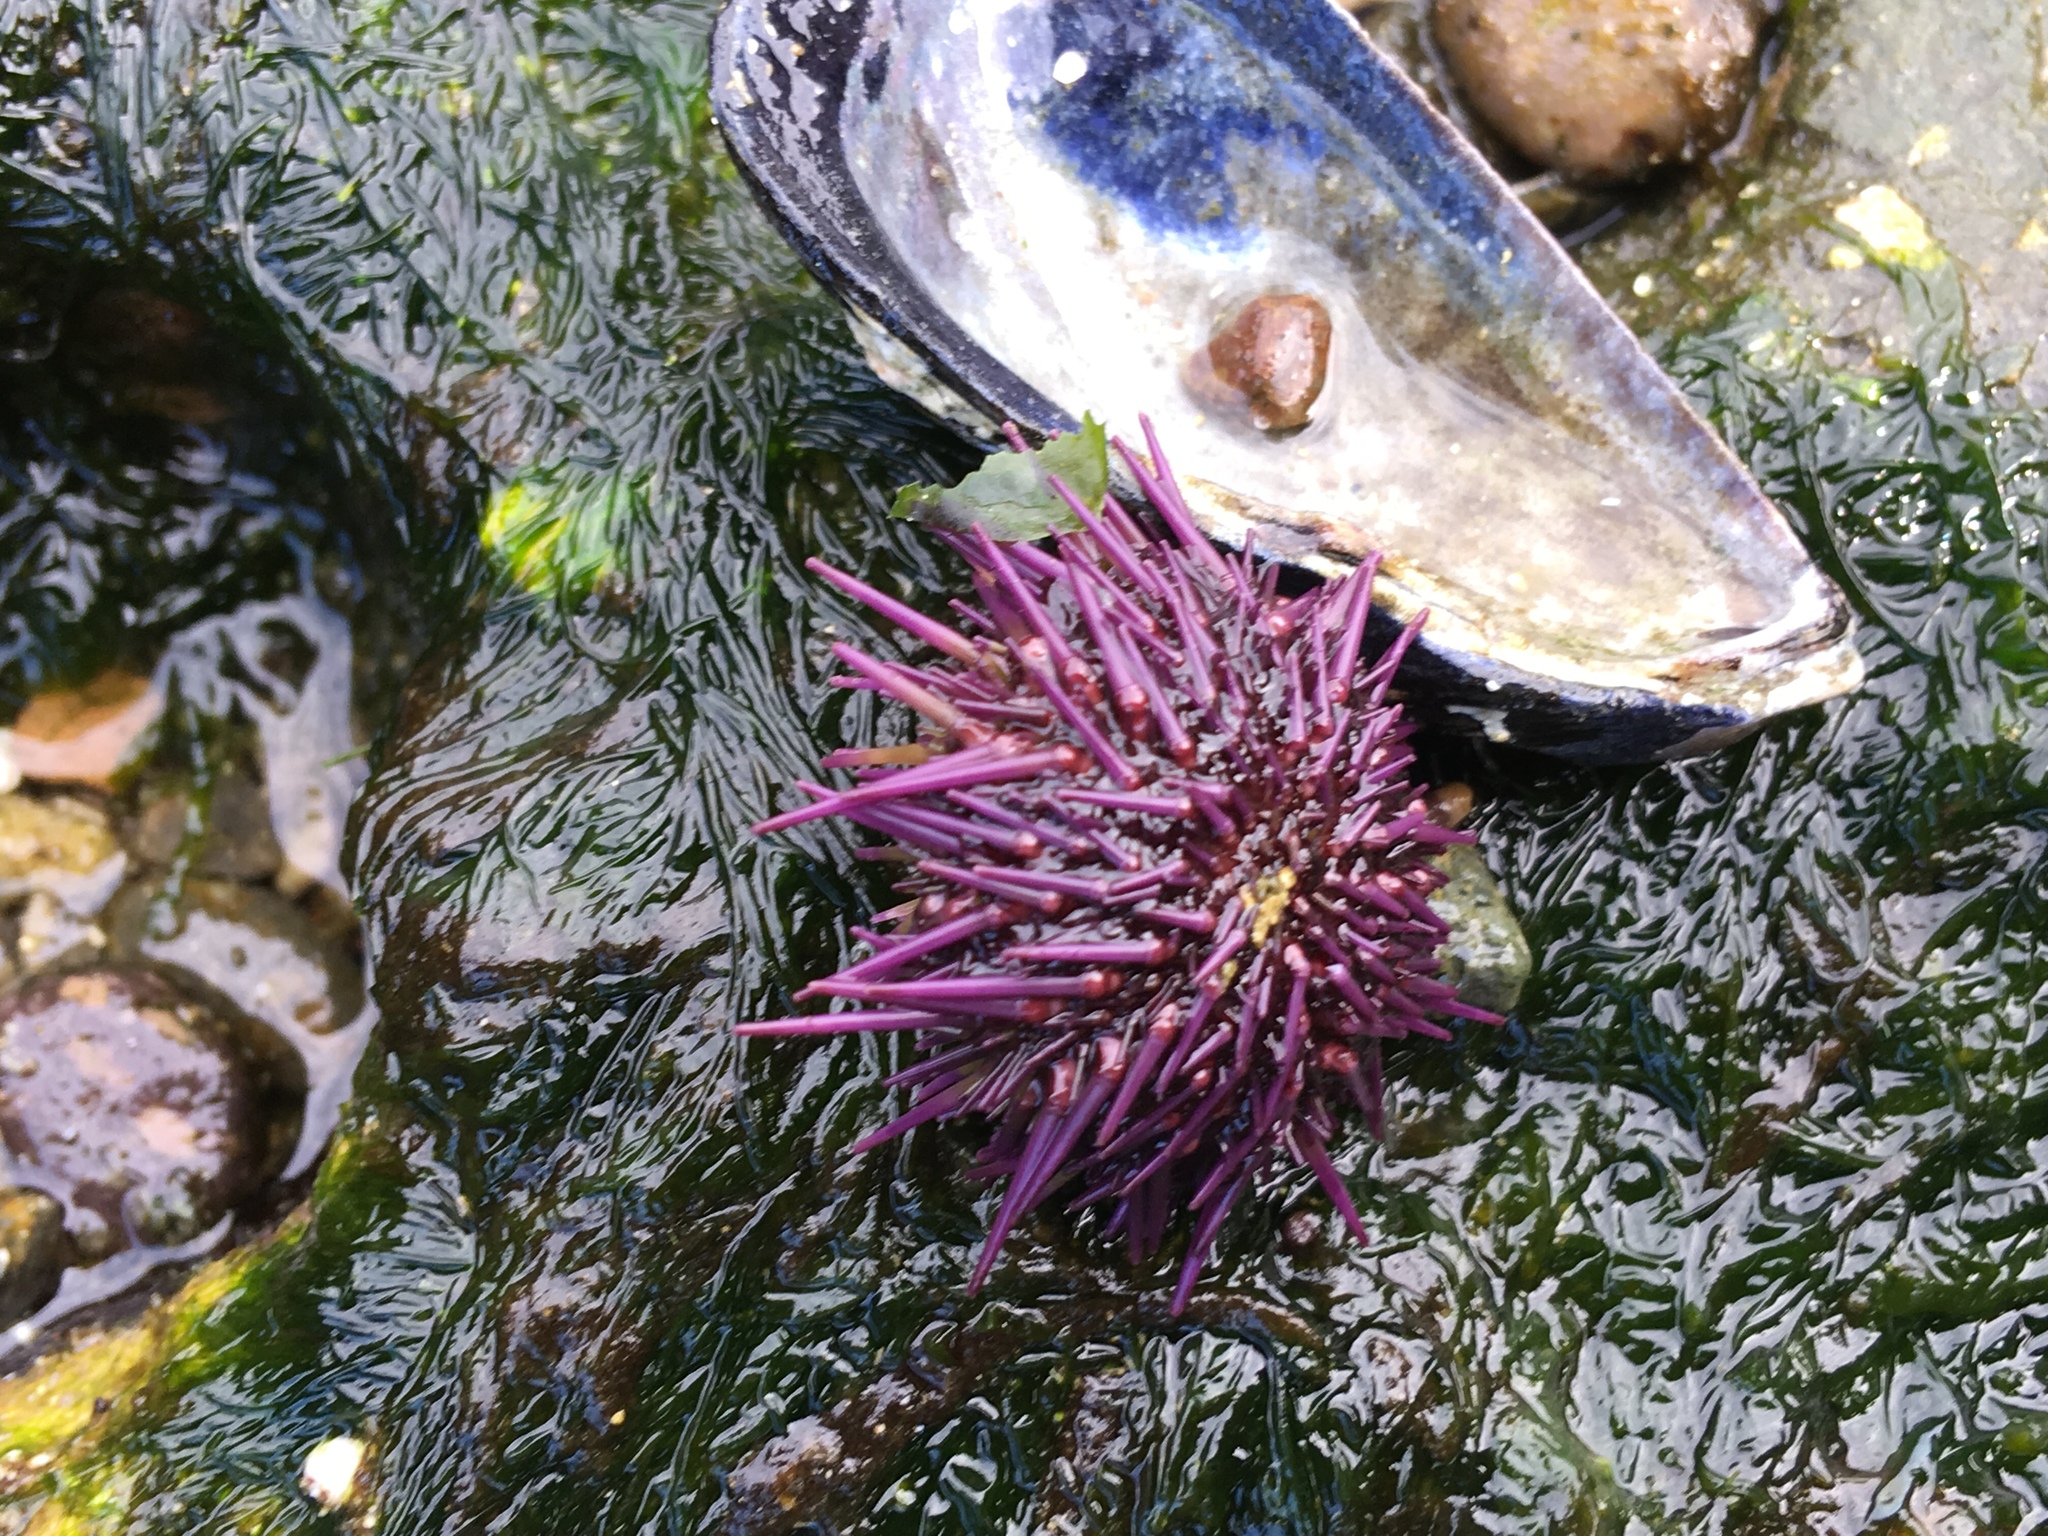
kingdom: Animalia
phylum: Echinodermata
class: Echinoidea
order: Camarodonta
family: Strongylocentrotidae
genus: Strongylocentrotus
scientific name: Strongylocentrotus purpuratus
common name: Purple sea urchin
